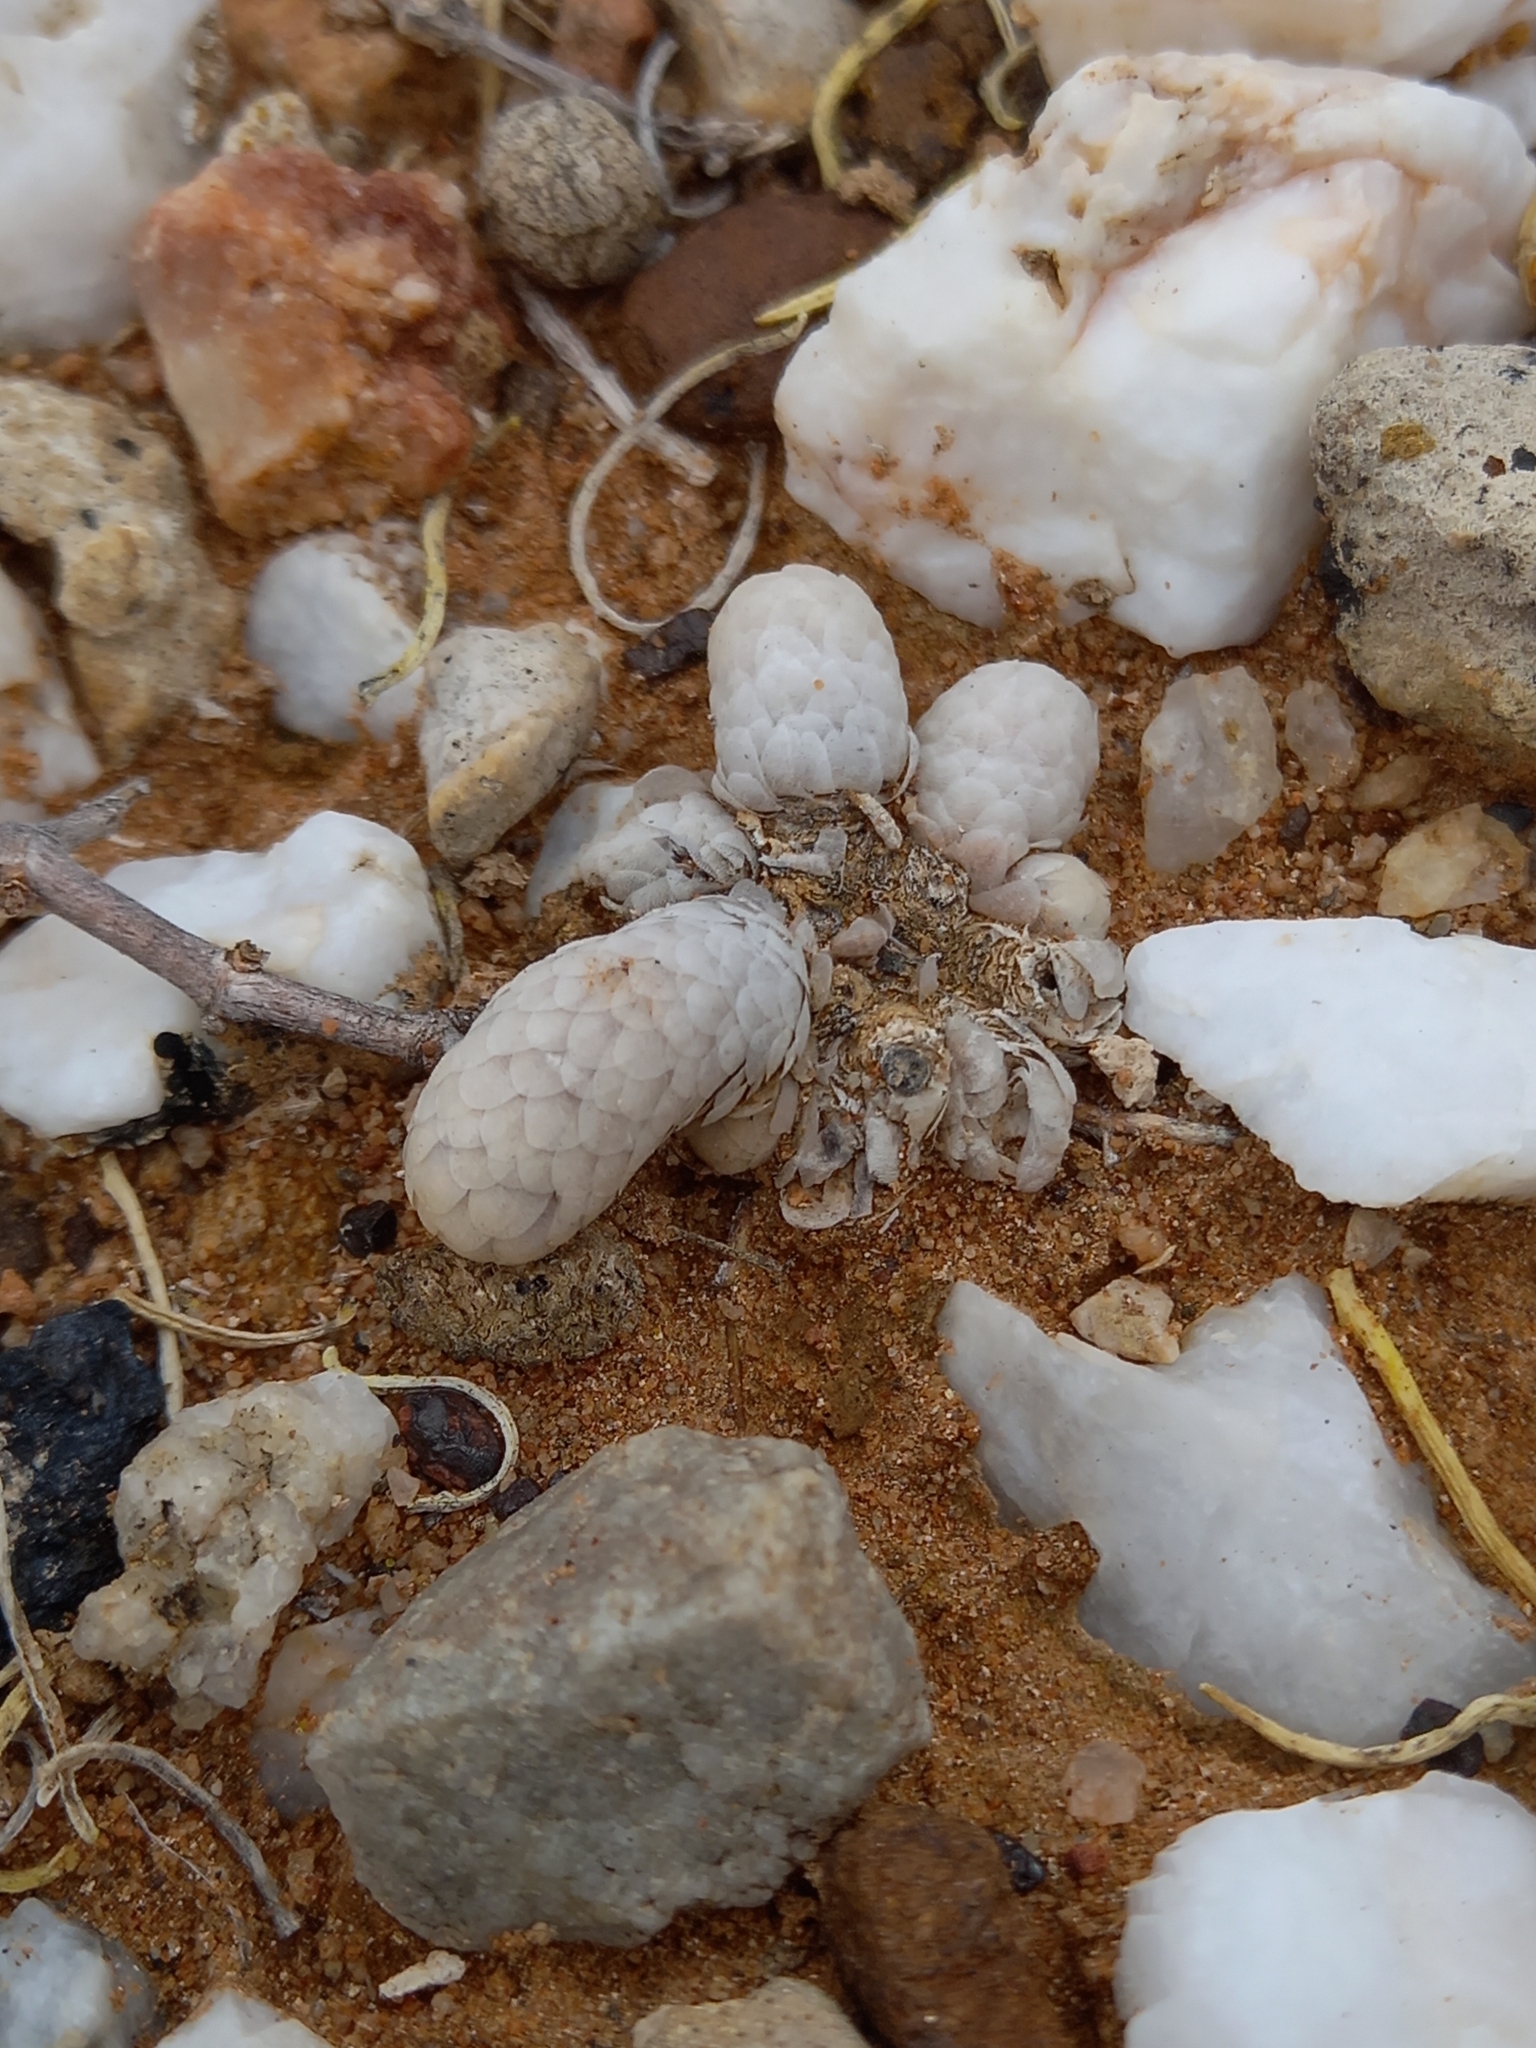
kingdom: Plantae
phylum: Tracheophyta
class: Magnoliopsida
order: Caryophyllales
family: Anacampserotaceae
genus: Avonia
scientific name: Avonia papyracea
